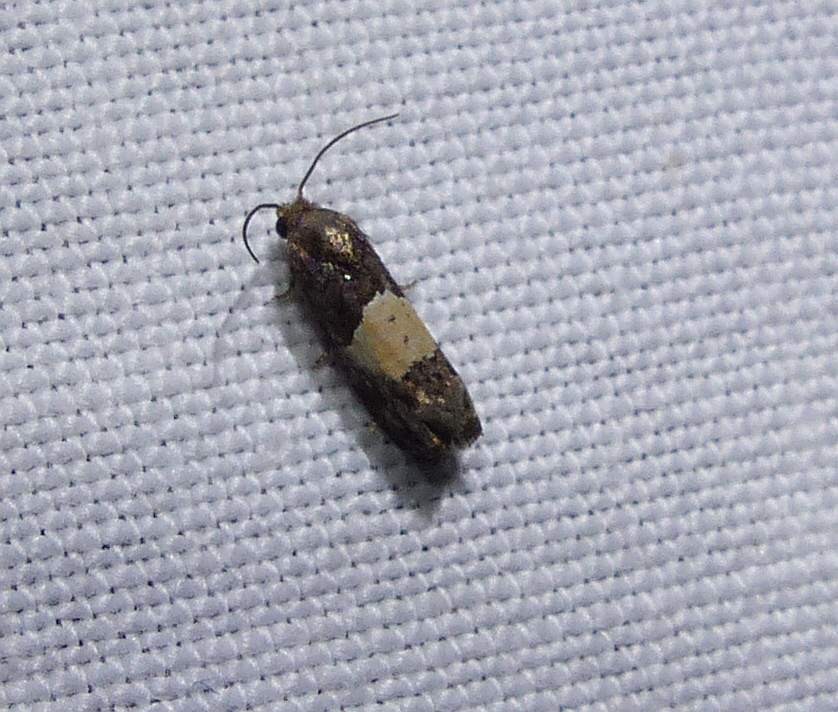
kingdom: Animalia
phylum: Arthropoda
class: Insecta
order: Lepidoptera
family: Tortricidae
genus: Epiblema
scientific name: Epiblema glenni
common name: Glenn's epiblema
